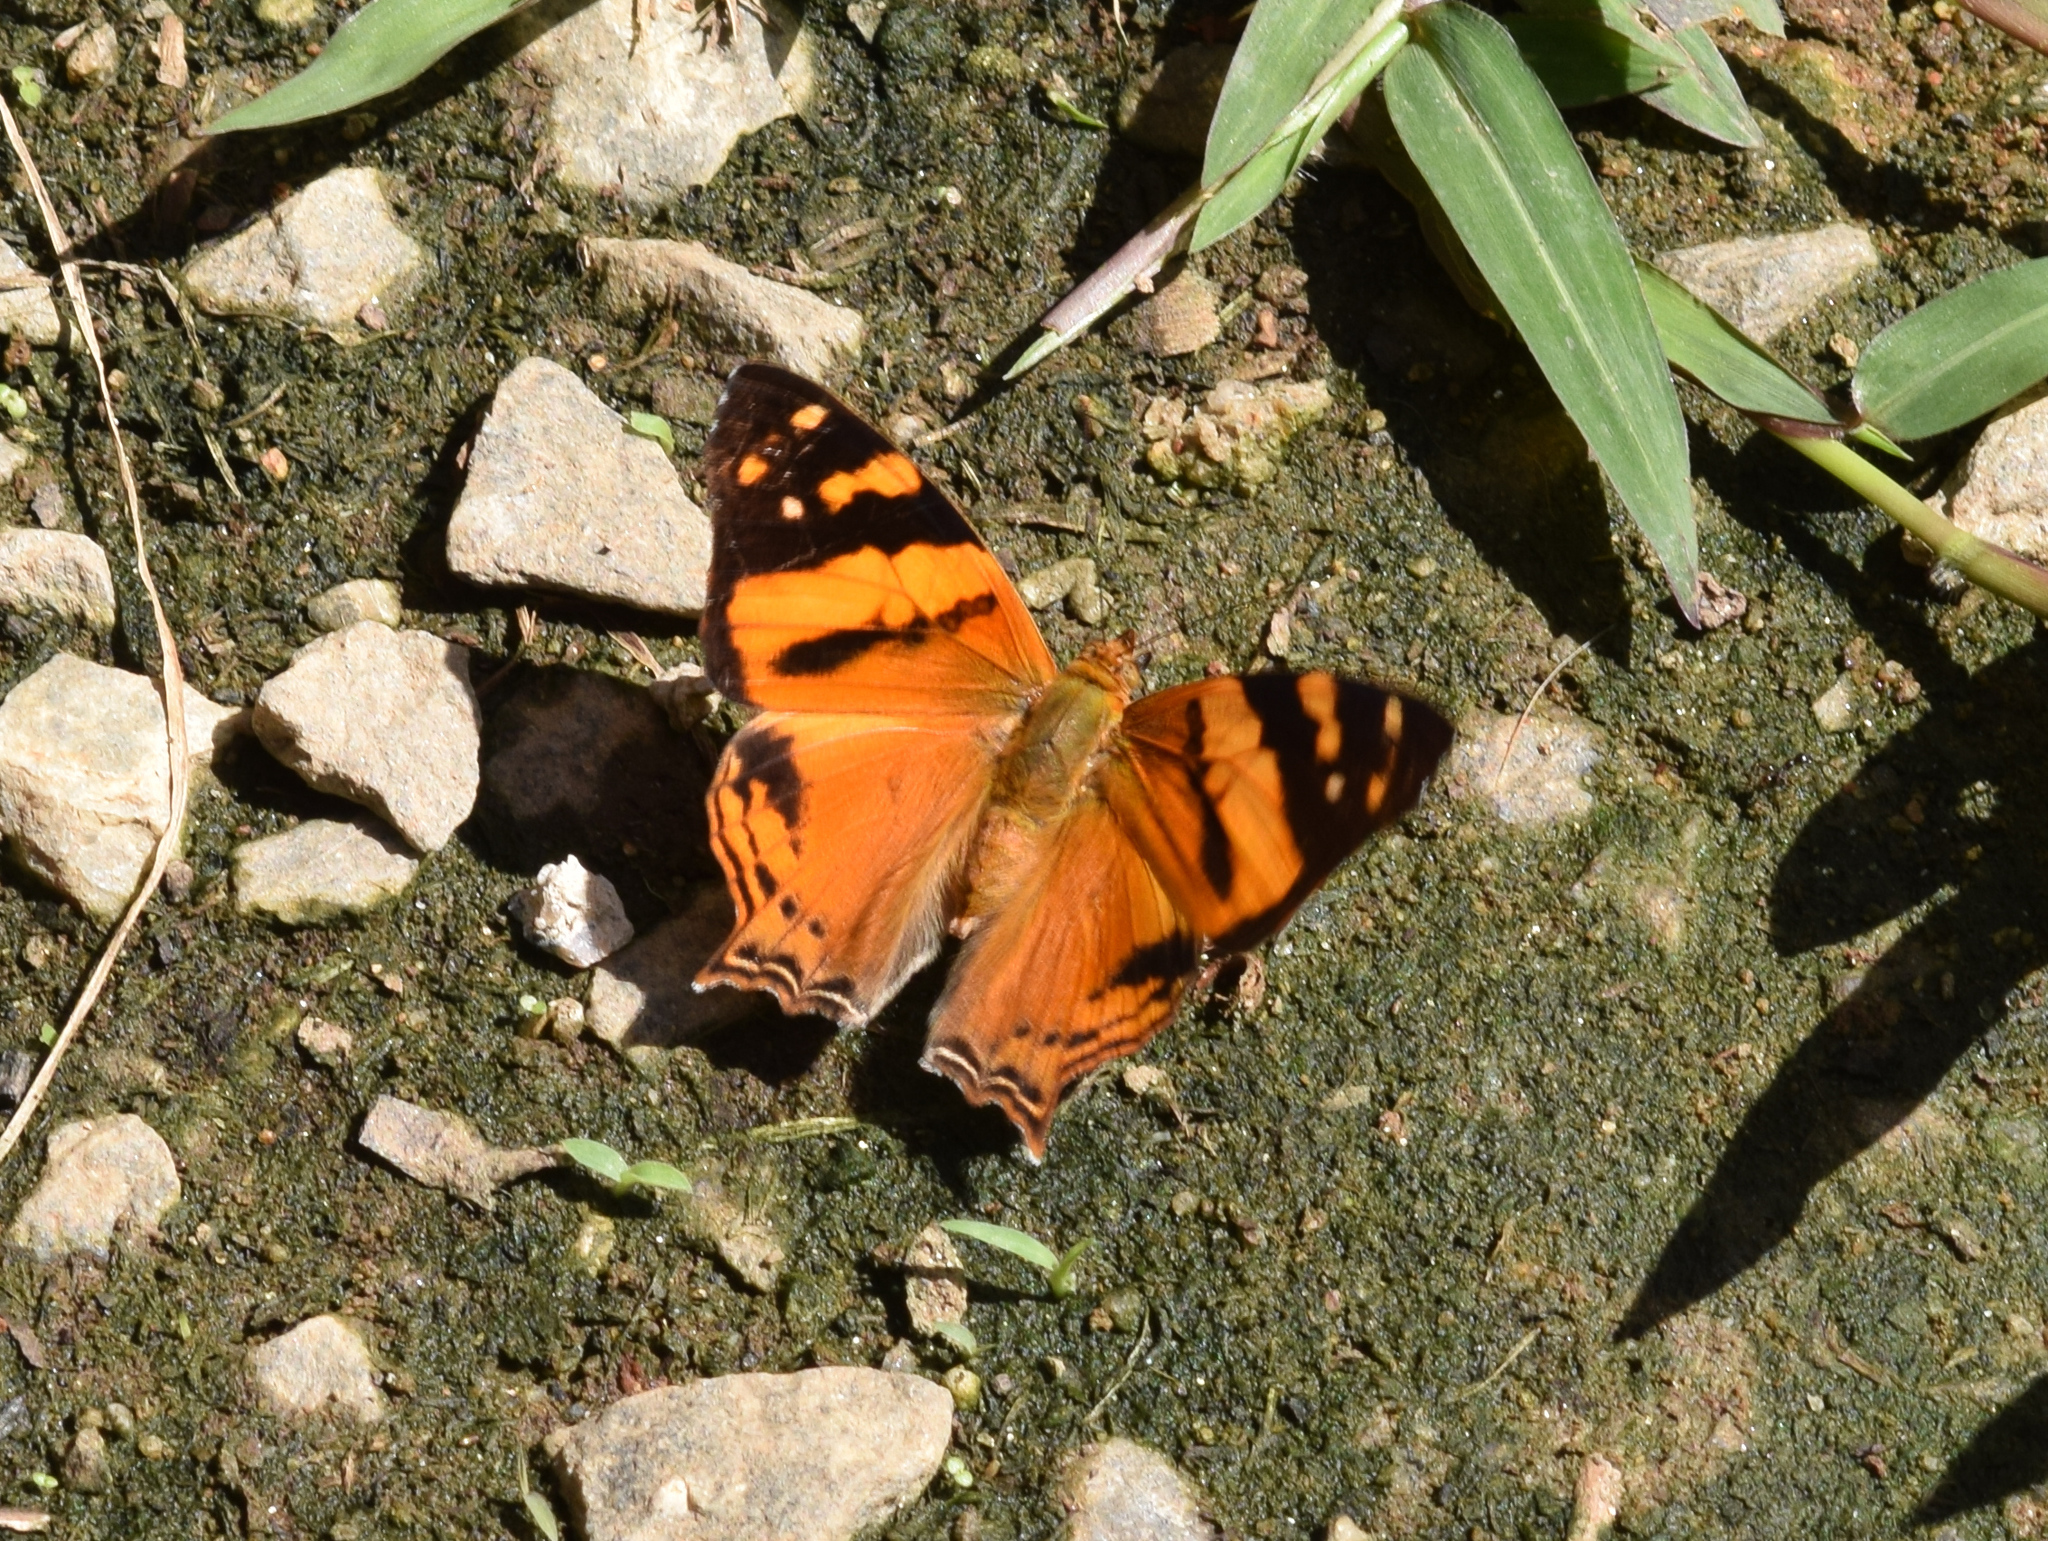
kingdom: Animalia
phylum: Arthropoda
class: Insecta
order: Lepidoptera
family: Nymphalidae
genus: Hypanartia
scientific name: Hypanartia lethe
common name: Orange mapwing
